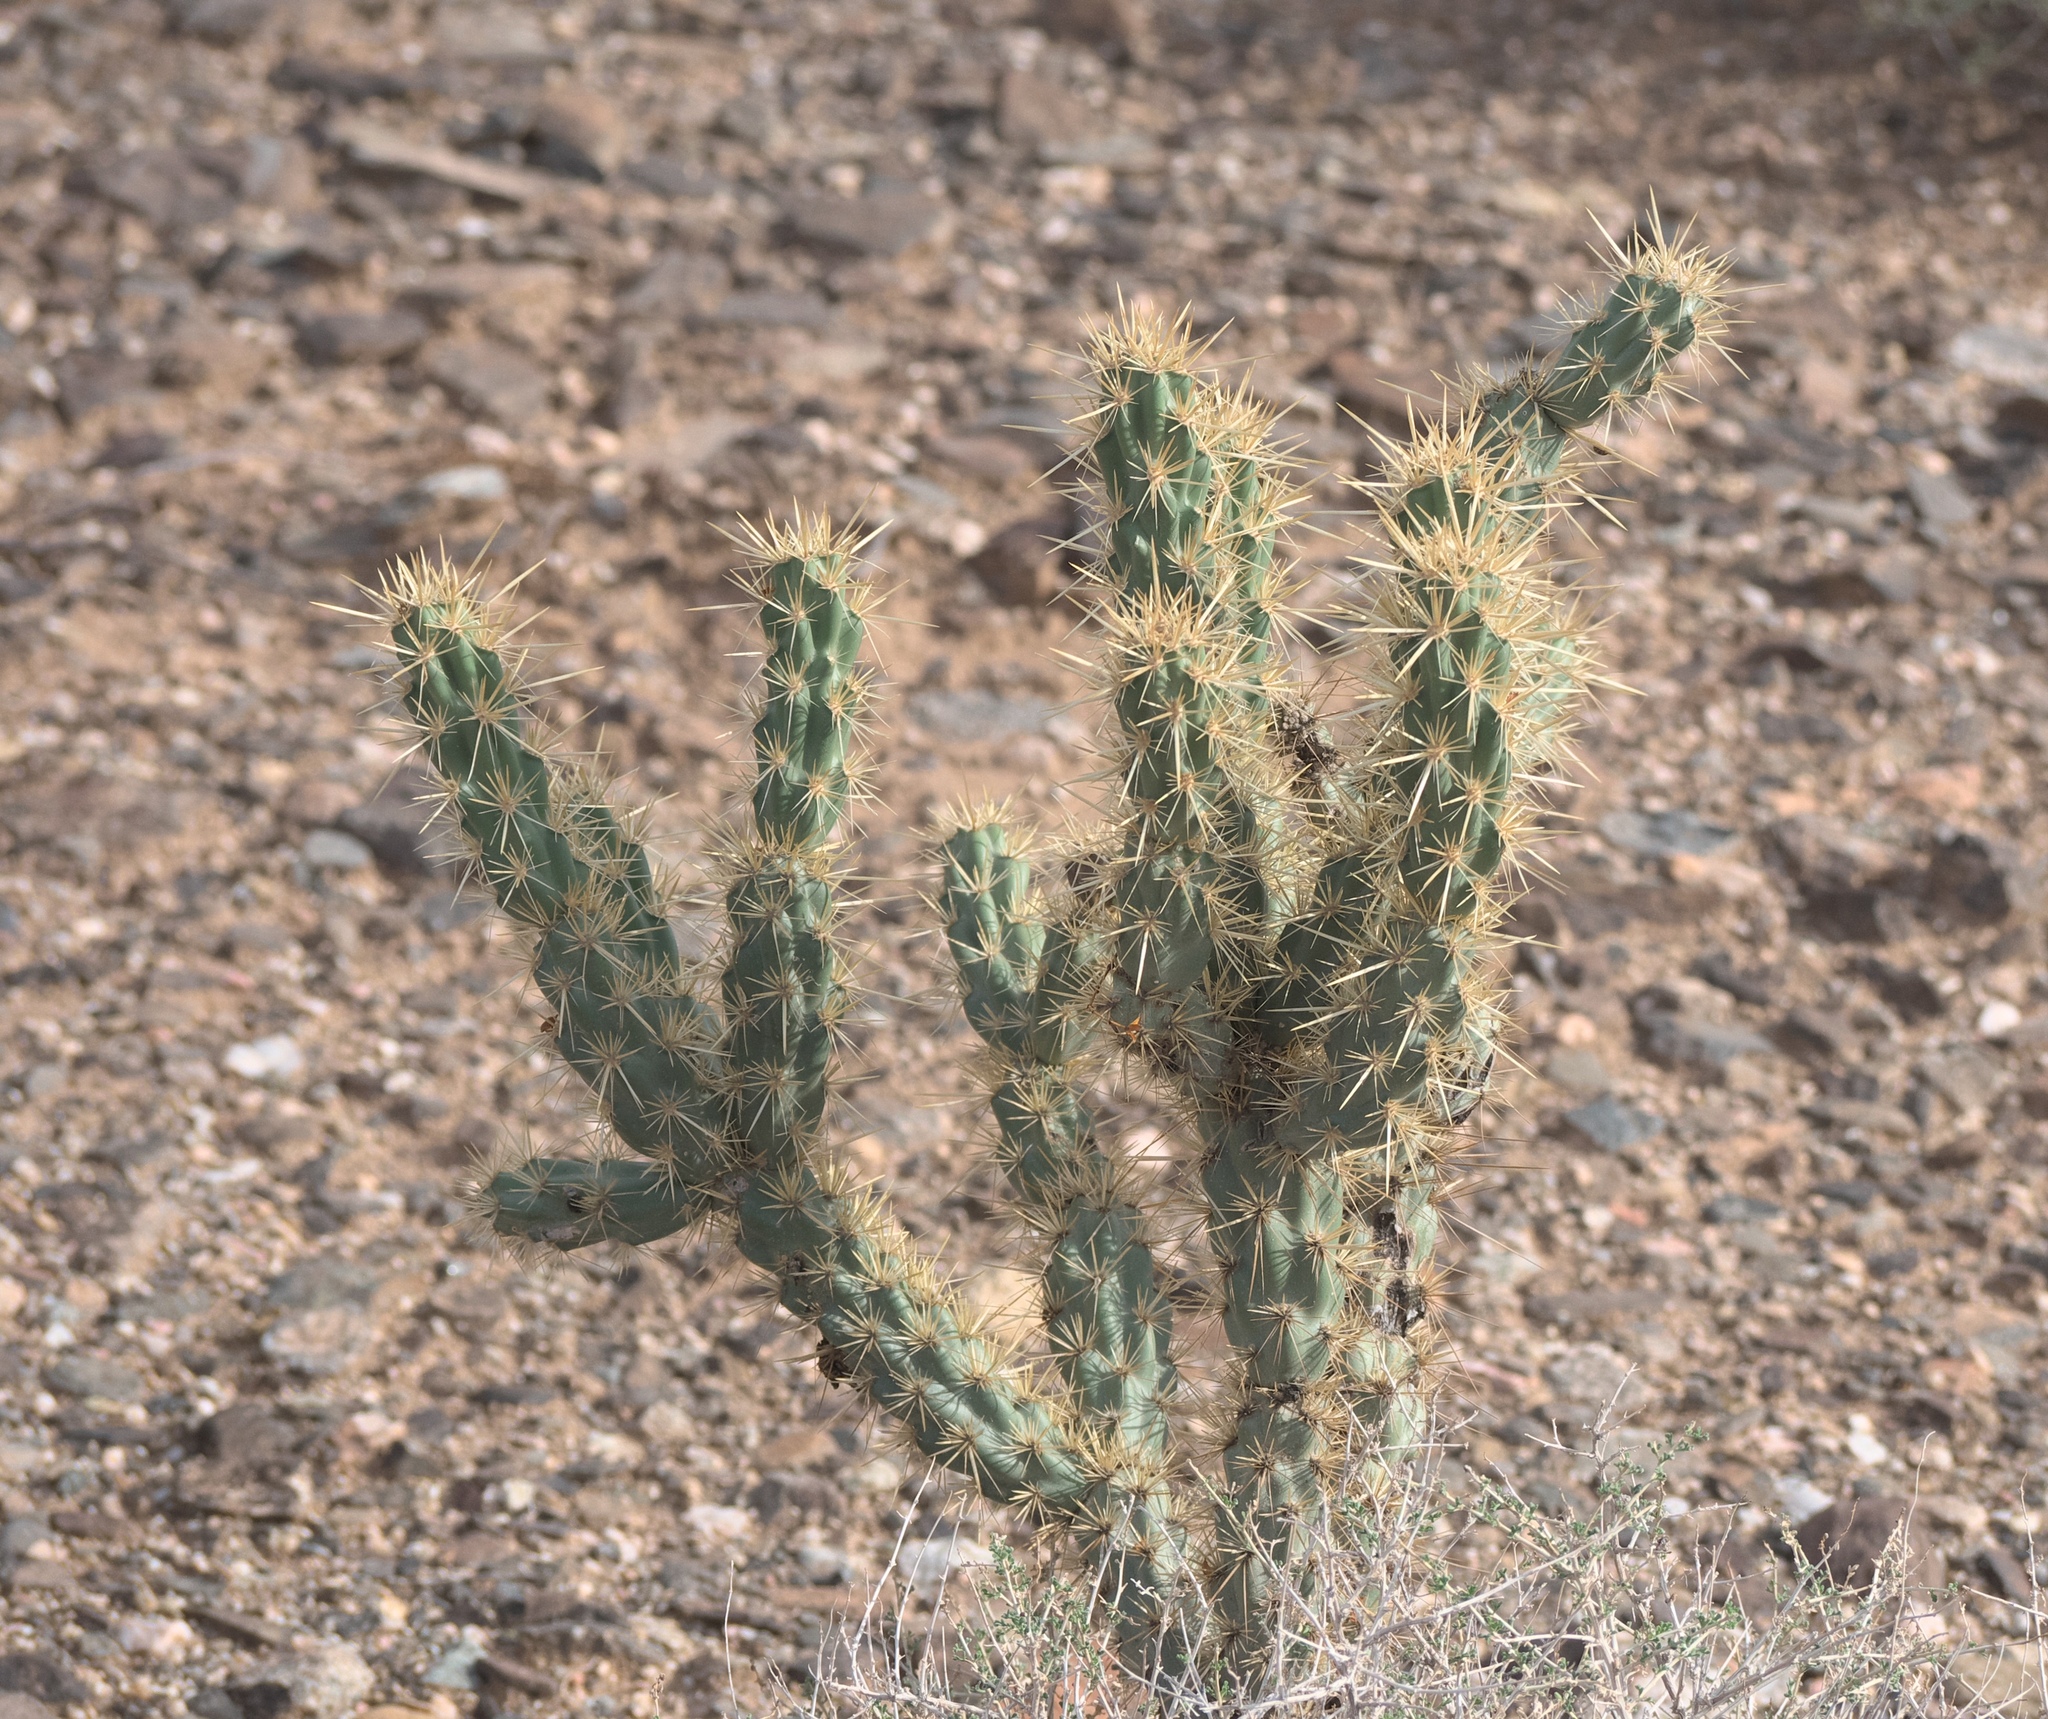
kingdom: Plantae
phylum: Tracheophyta
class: Magnoliopsida
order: Caryophyllales
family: Cactaceae
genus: Cylindropuntia
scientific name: Cylindropuntia acanthocarpa
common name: Buckhorn cholla
